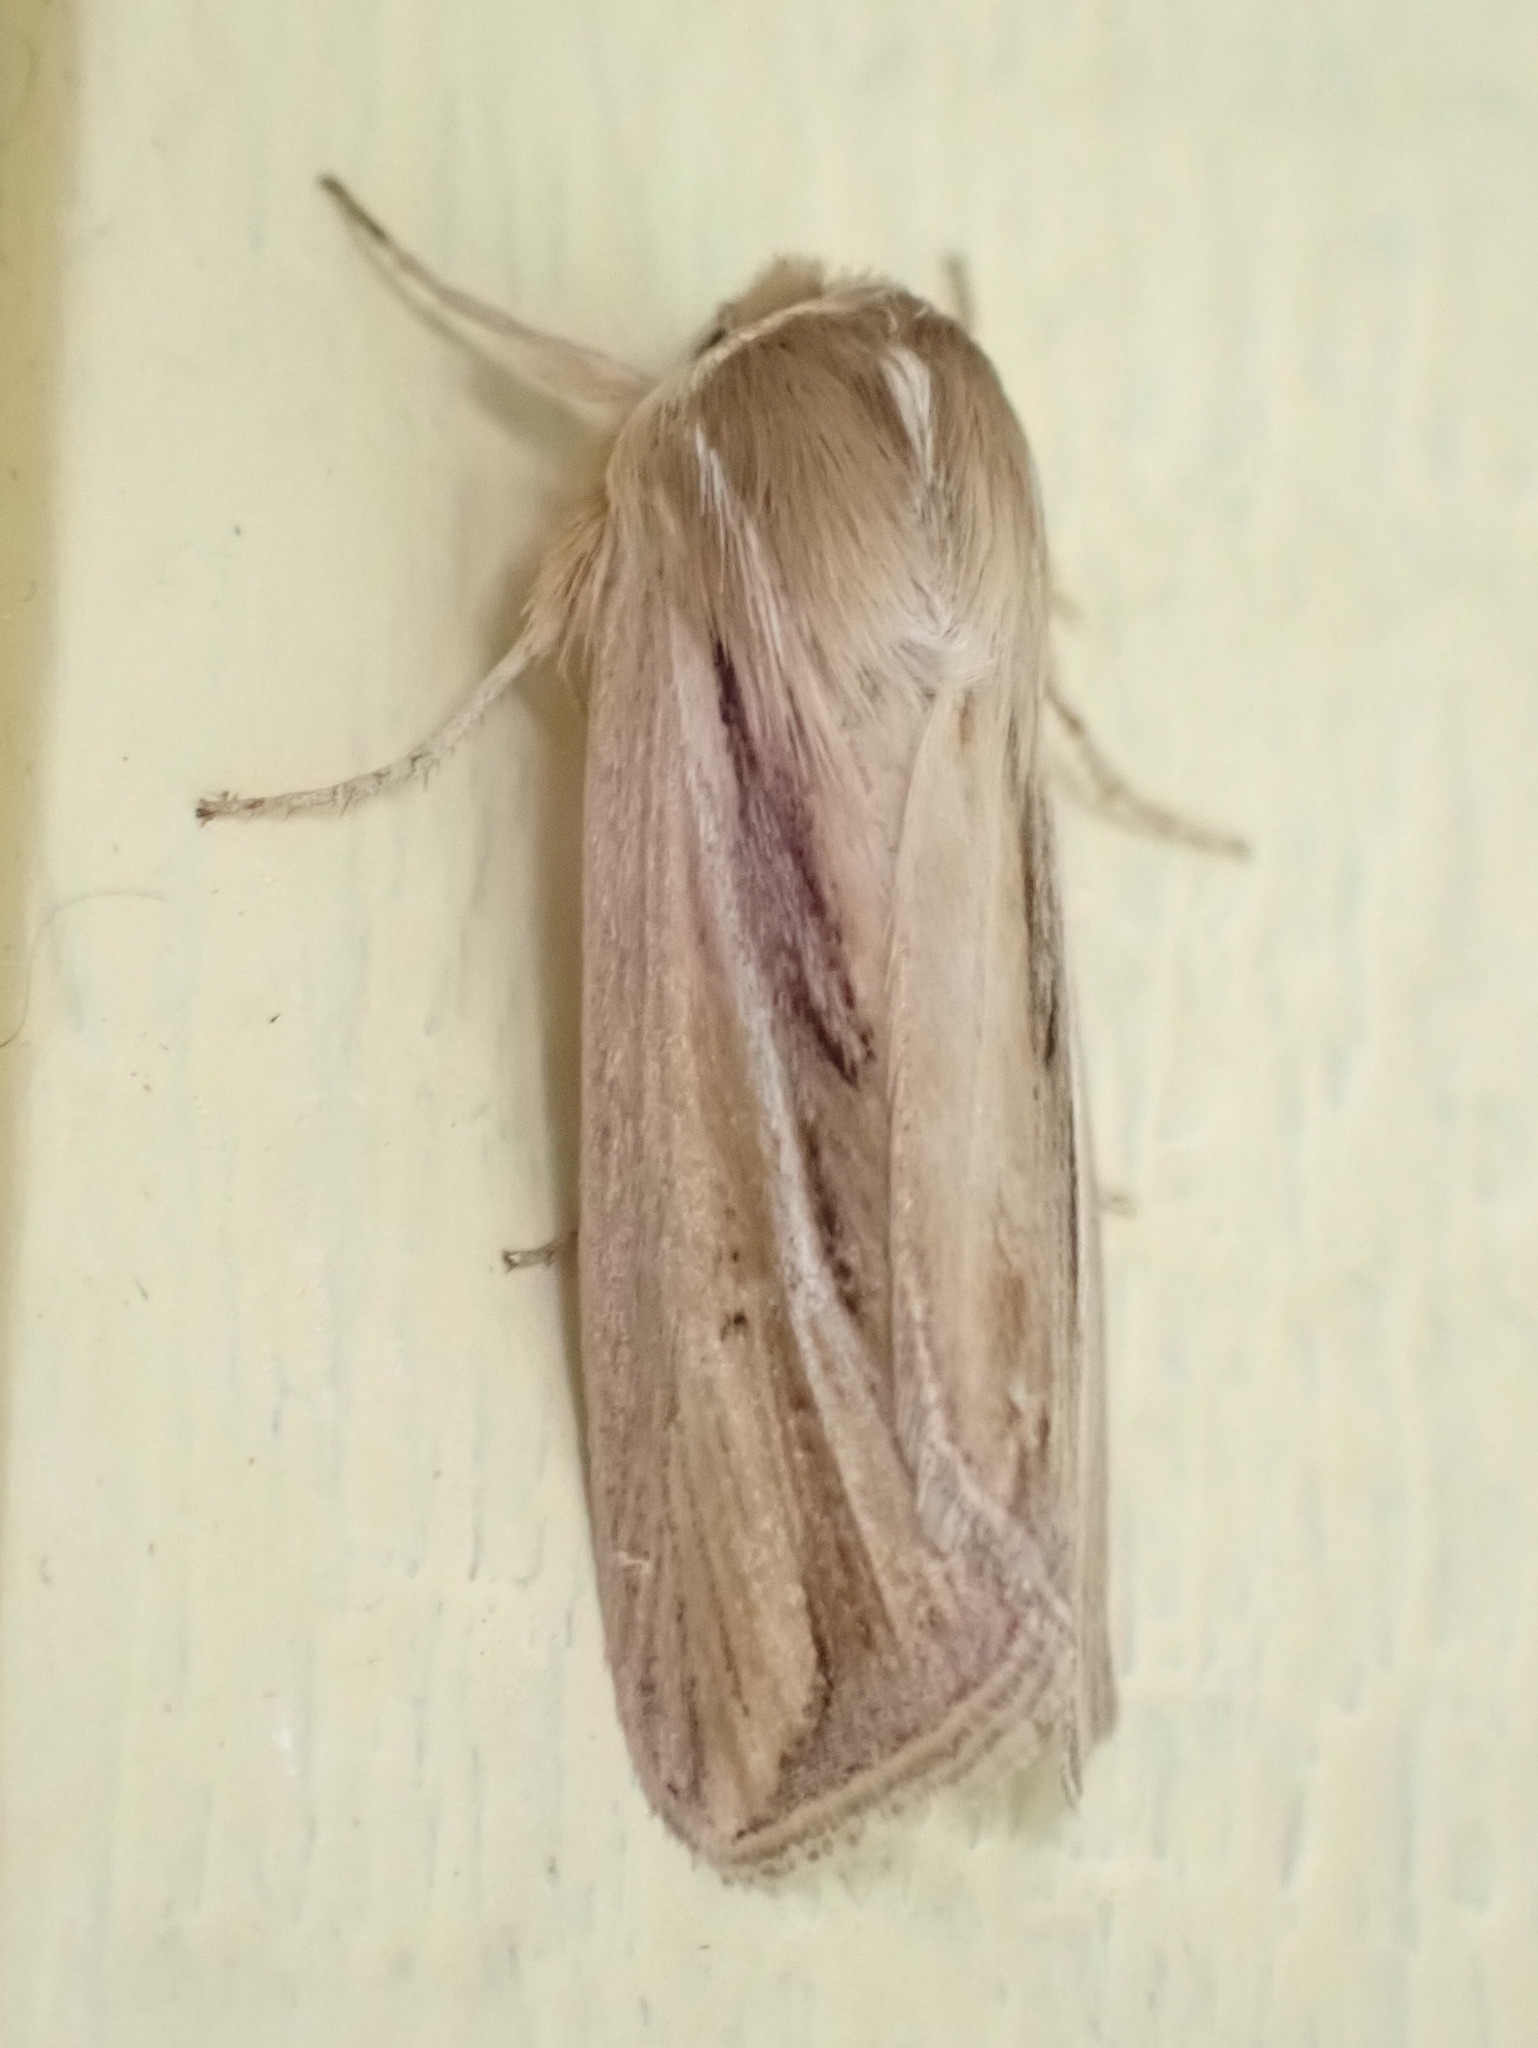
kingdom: Animalia
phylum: Arthropoda
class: Insecta
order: Lepidoptera
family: Noctuidae
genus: Dargida
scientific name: Dargida diffusa
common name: Wheat head armyworm
